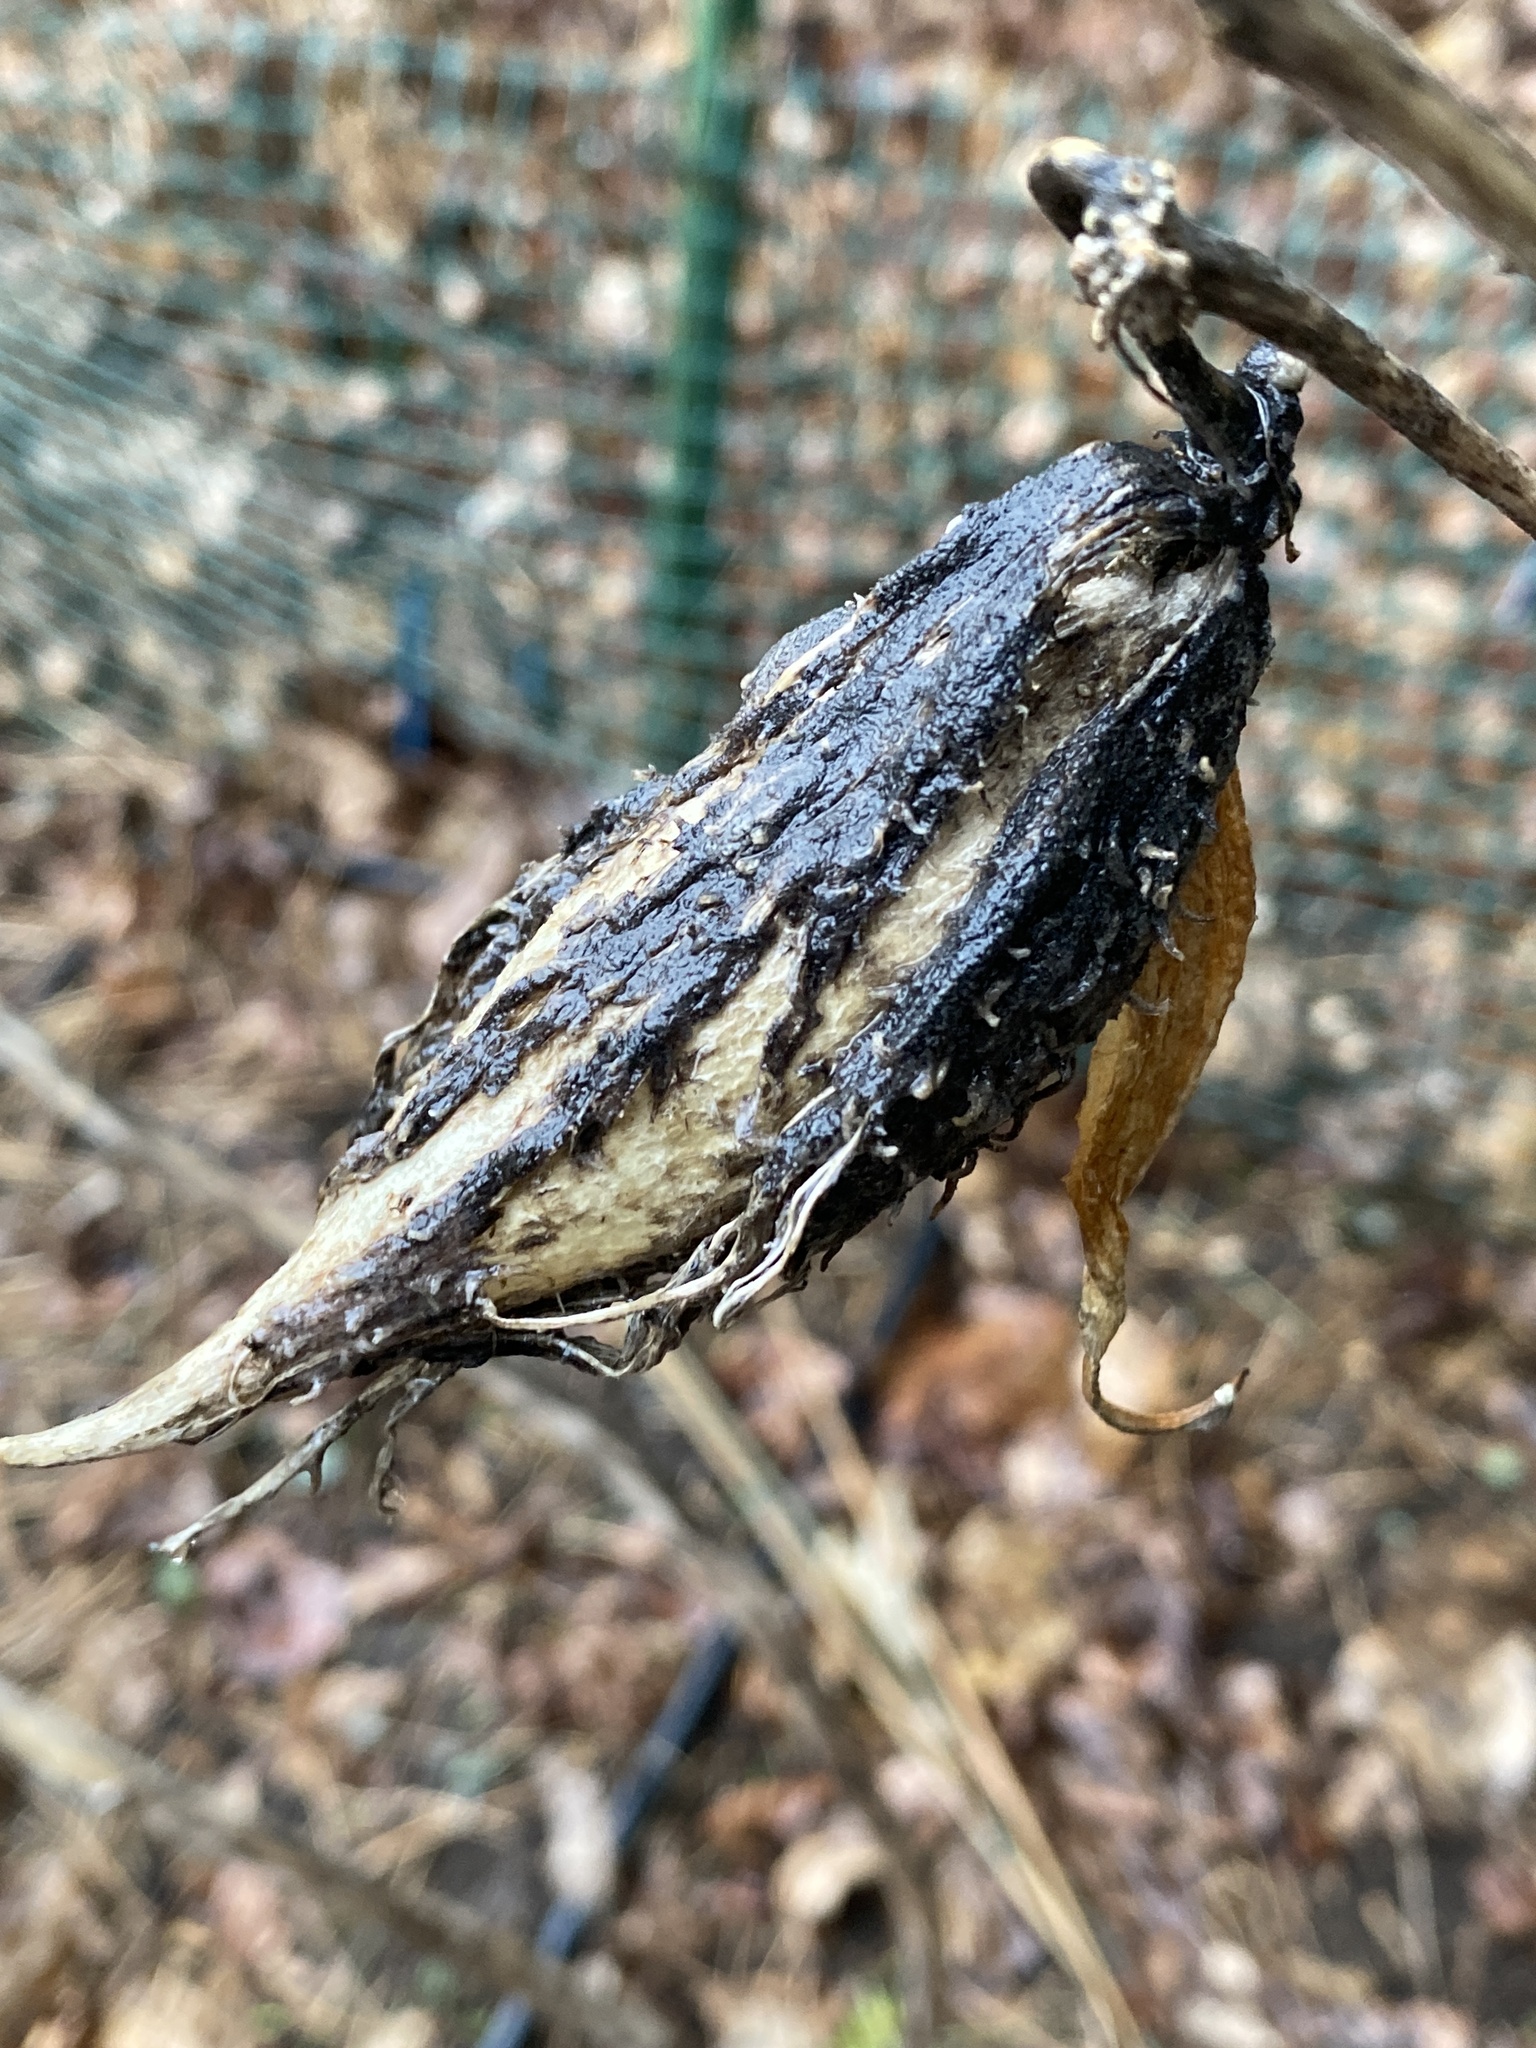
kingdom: Plantae
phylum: Tracheophyta
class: Magnoliopsida
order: Gentianales
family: Apocynaceae
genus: Asclepias
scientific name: Asclepias syriaca
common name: Common milkweed
